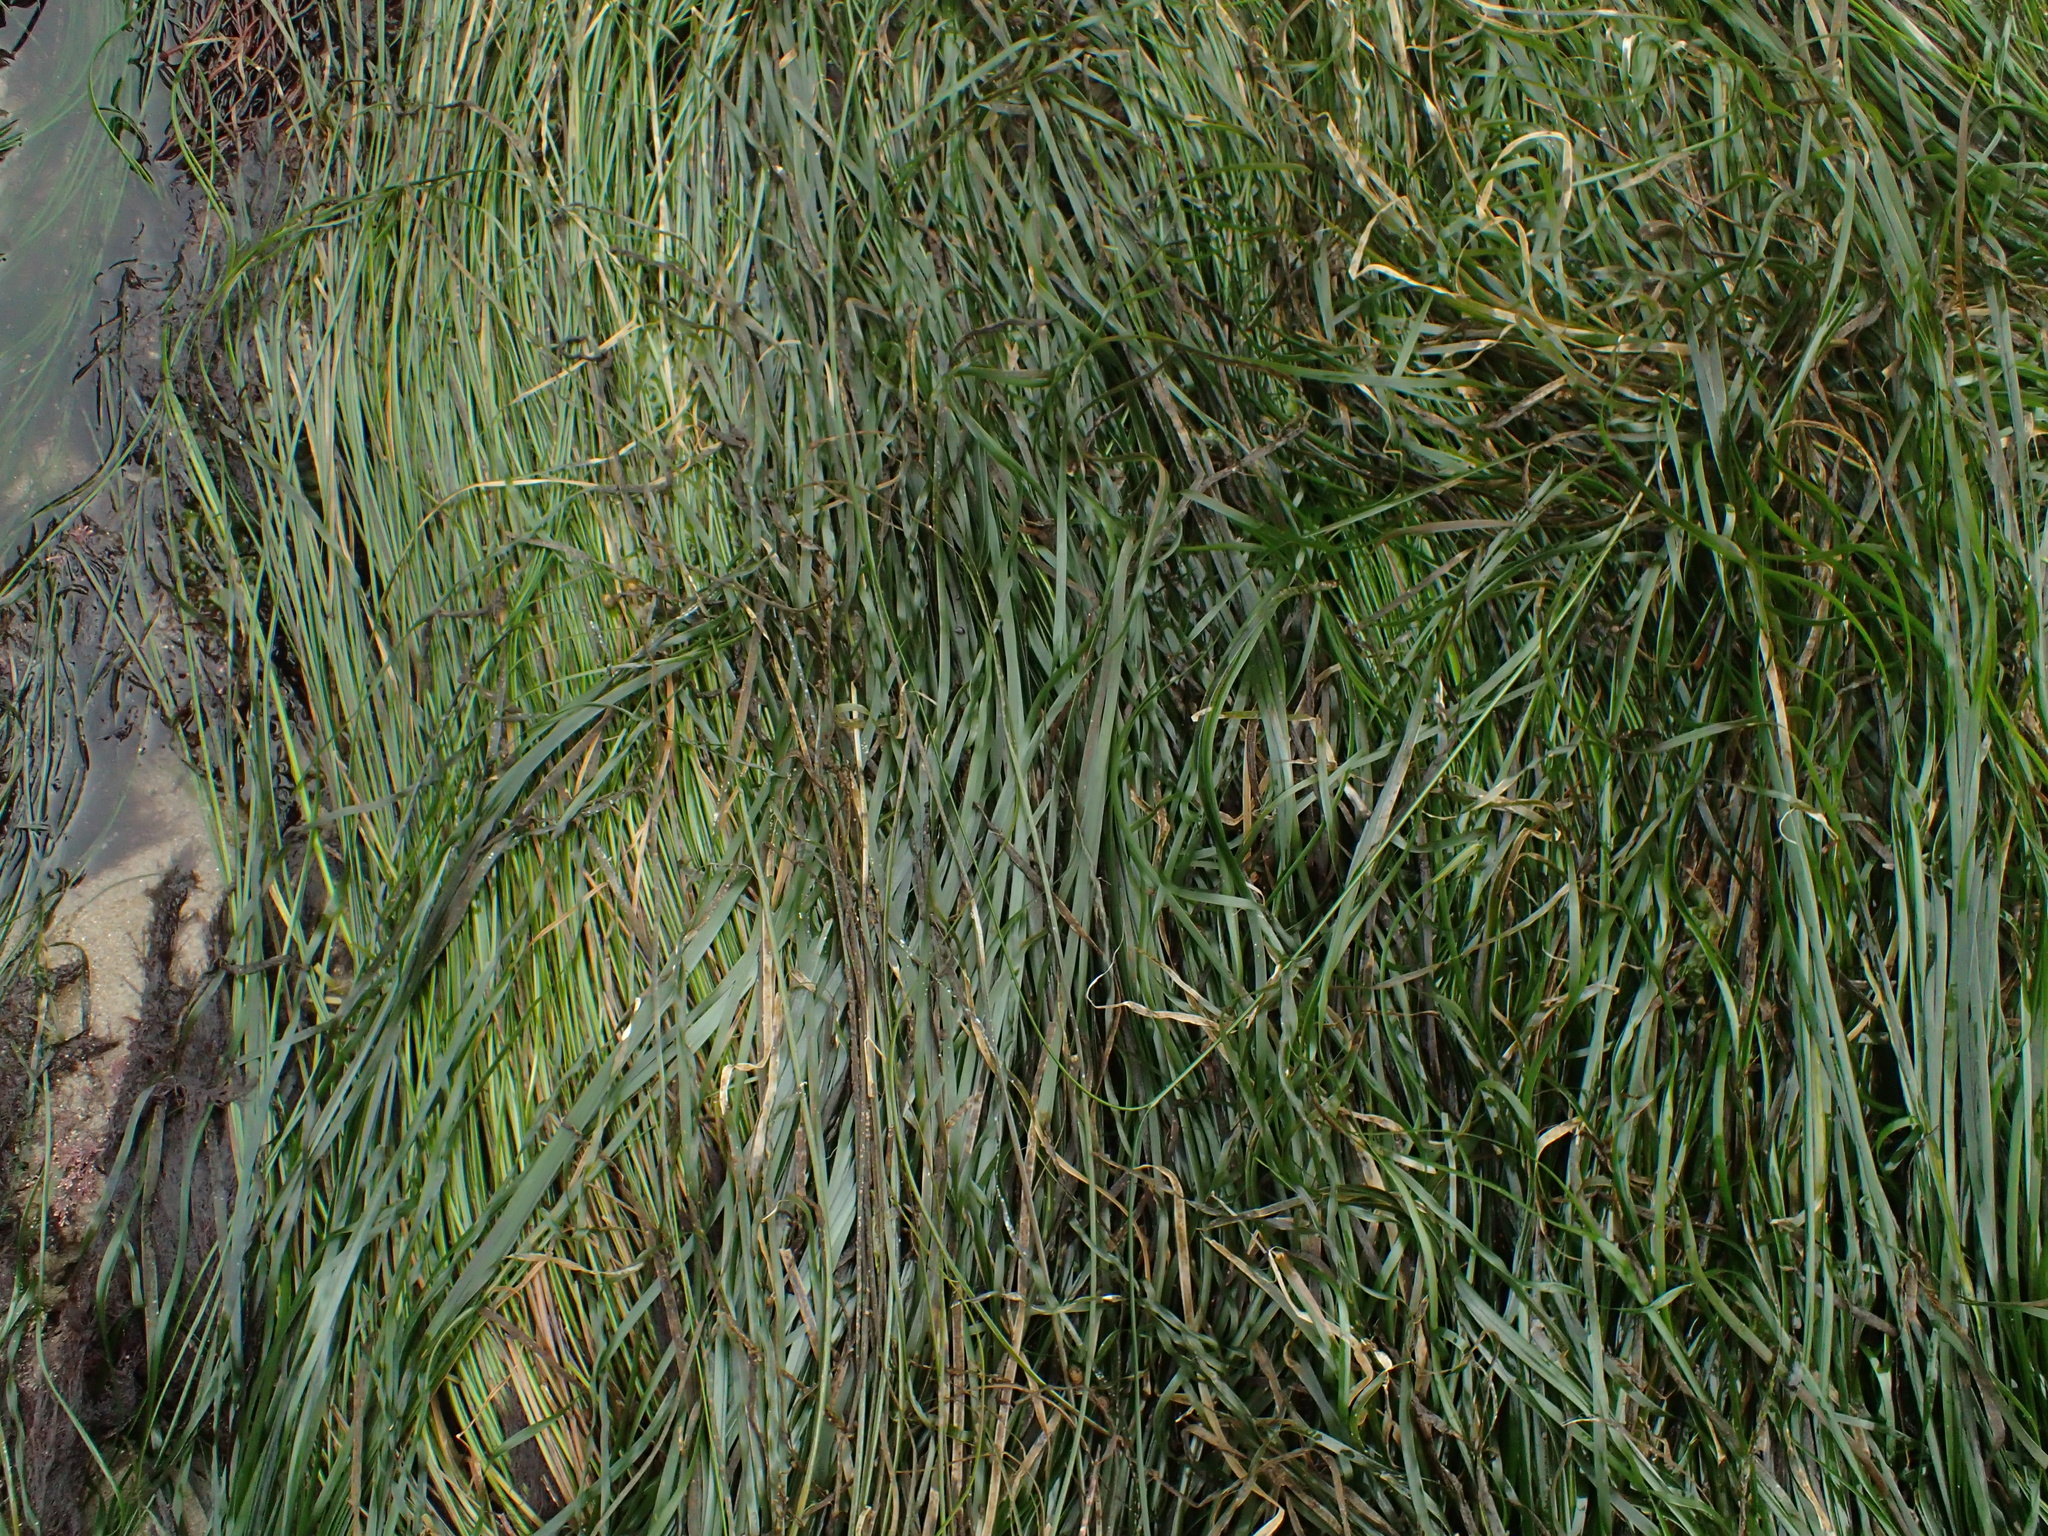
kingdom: Plantae
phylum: Tracheophyta
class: Liliopsida
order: Alismatales
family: Zosteraceae
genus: Phyllospadix
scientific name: Phyllospadix torreyi
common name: Surfgrass
